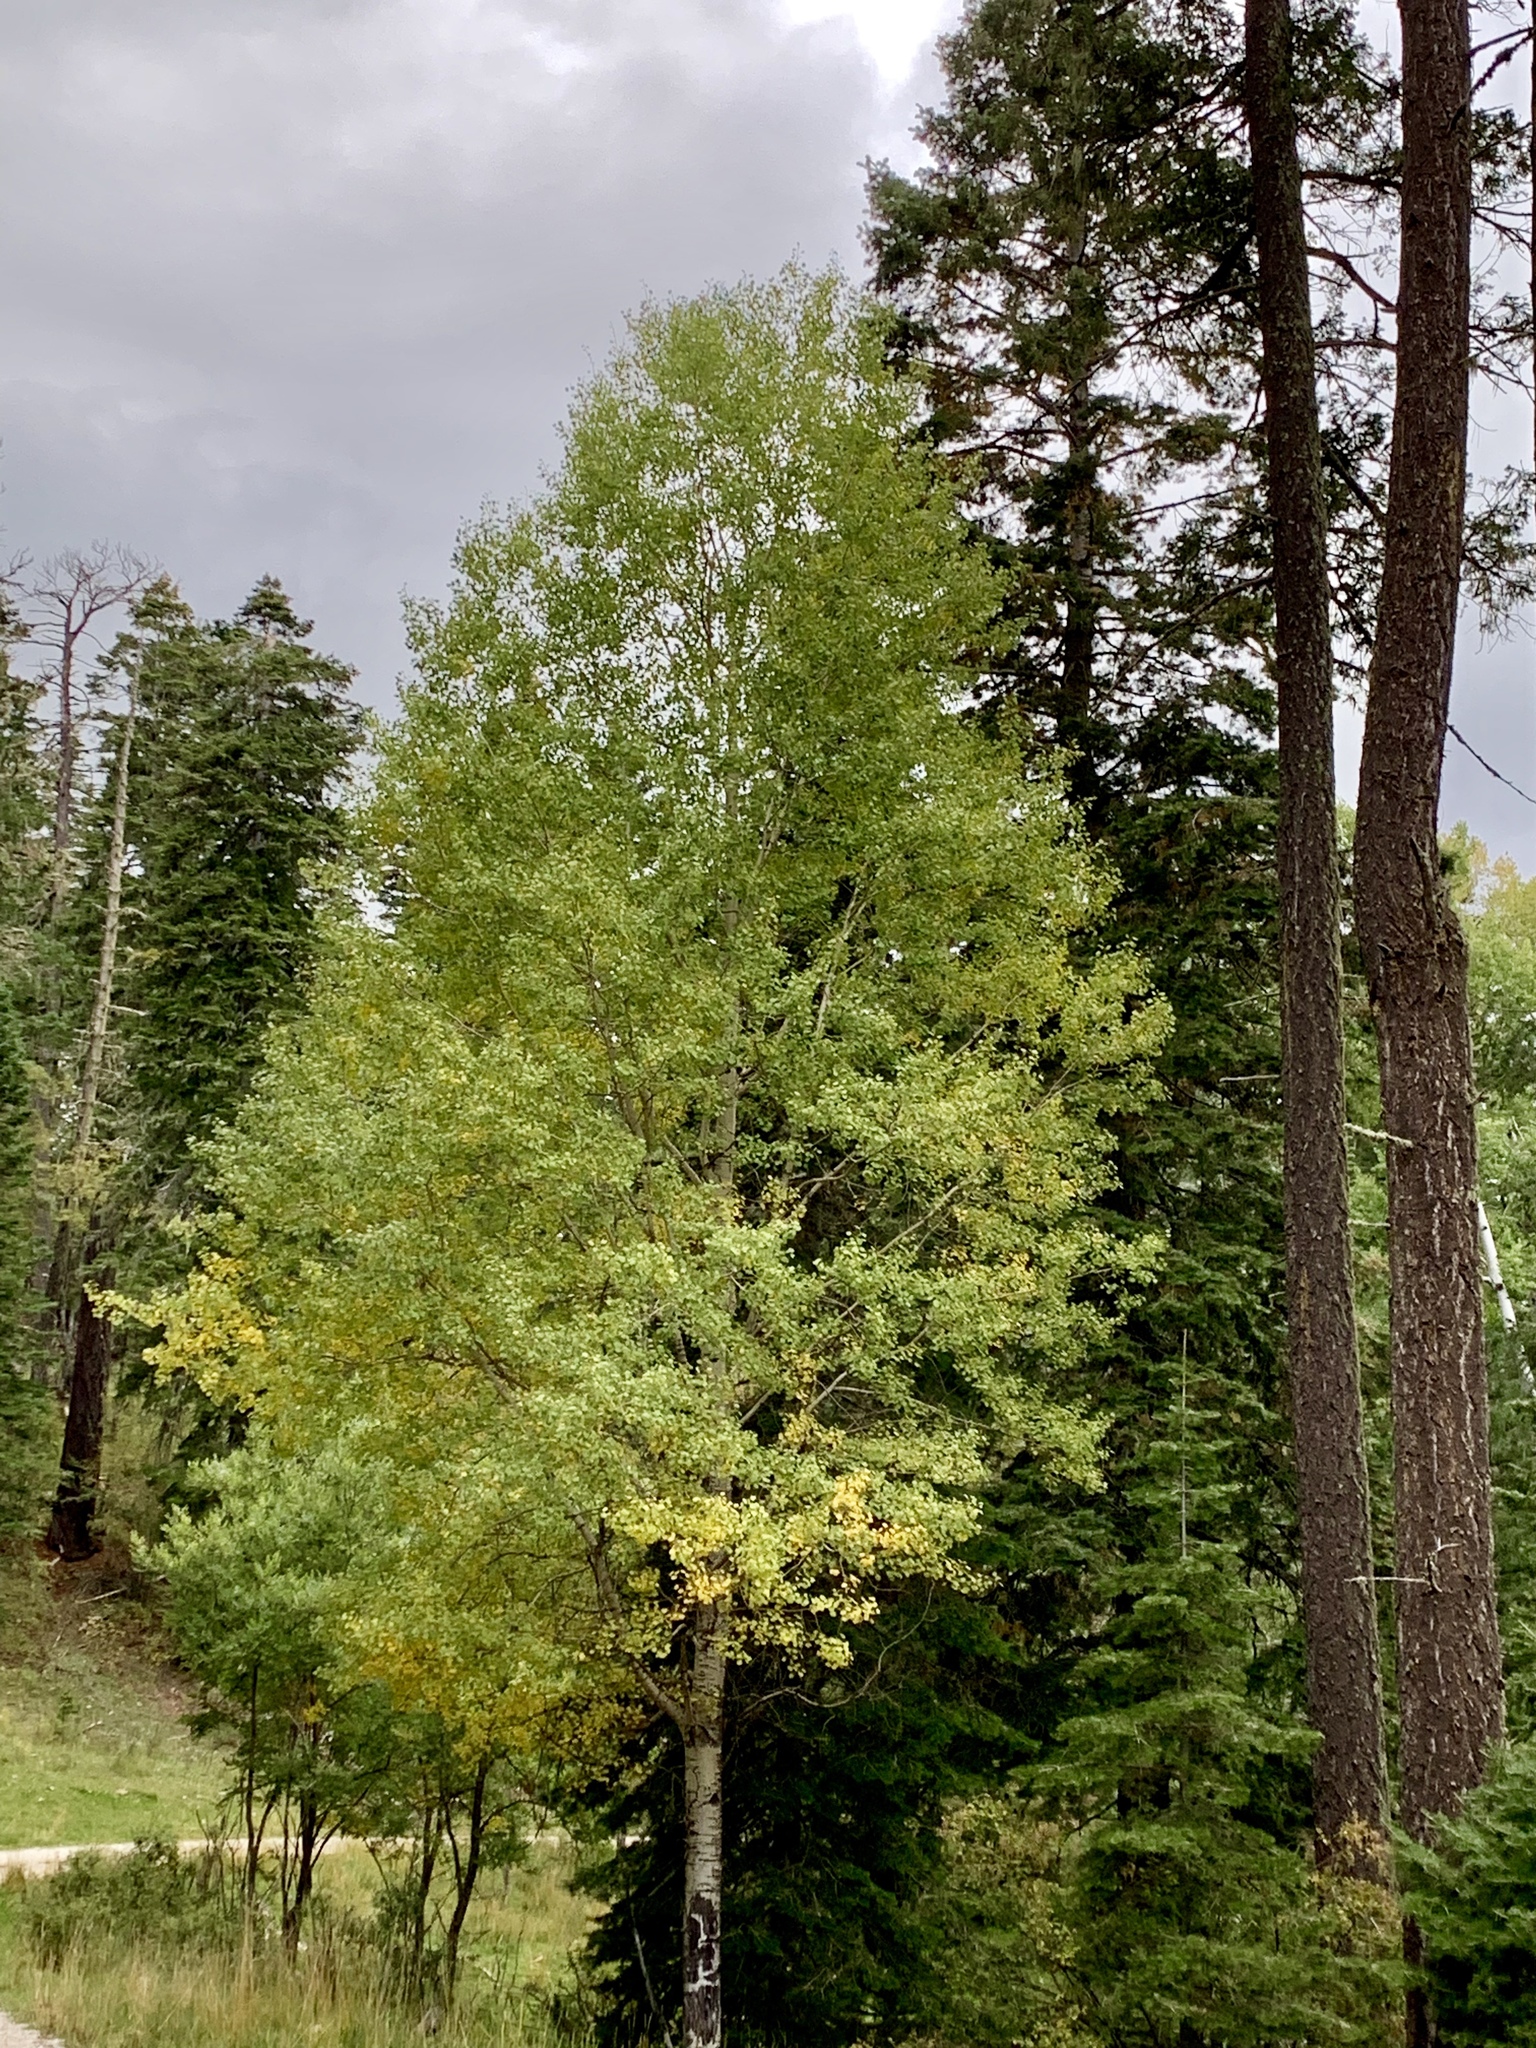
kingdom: Plantae
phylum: Tracheophyta
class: Magnoliopsida
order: Malpighiales
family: Salicaceae
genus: Populus
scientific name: Populus tremuloides
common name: Quaking aspen
